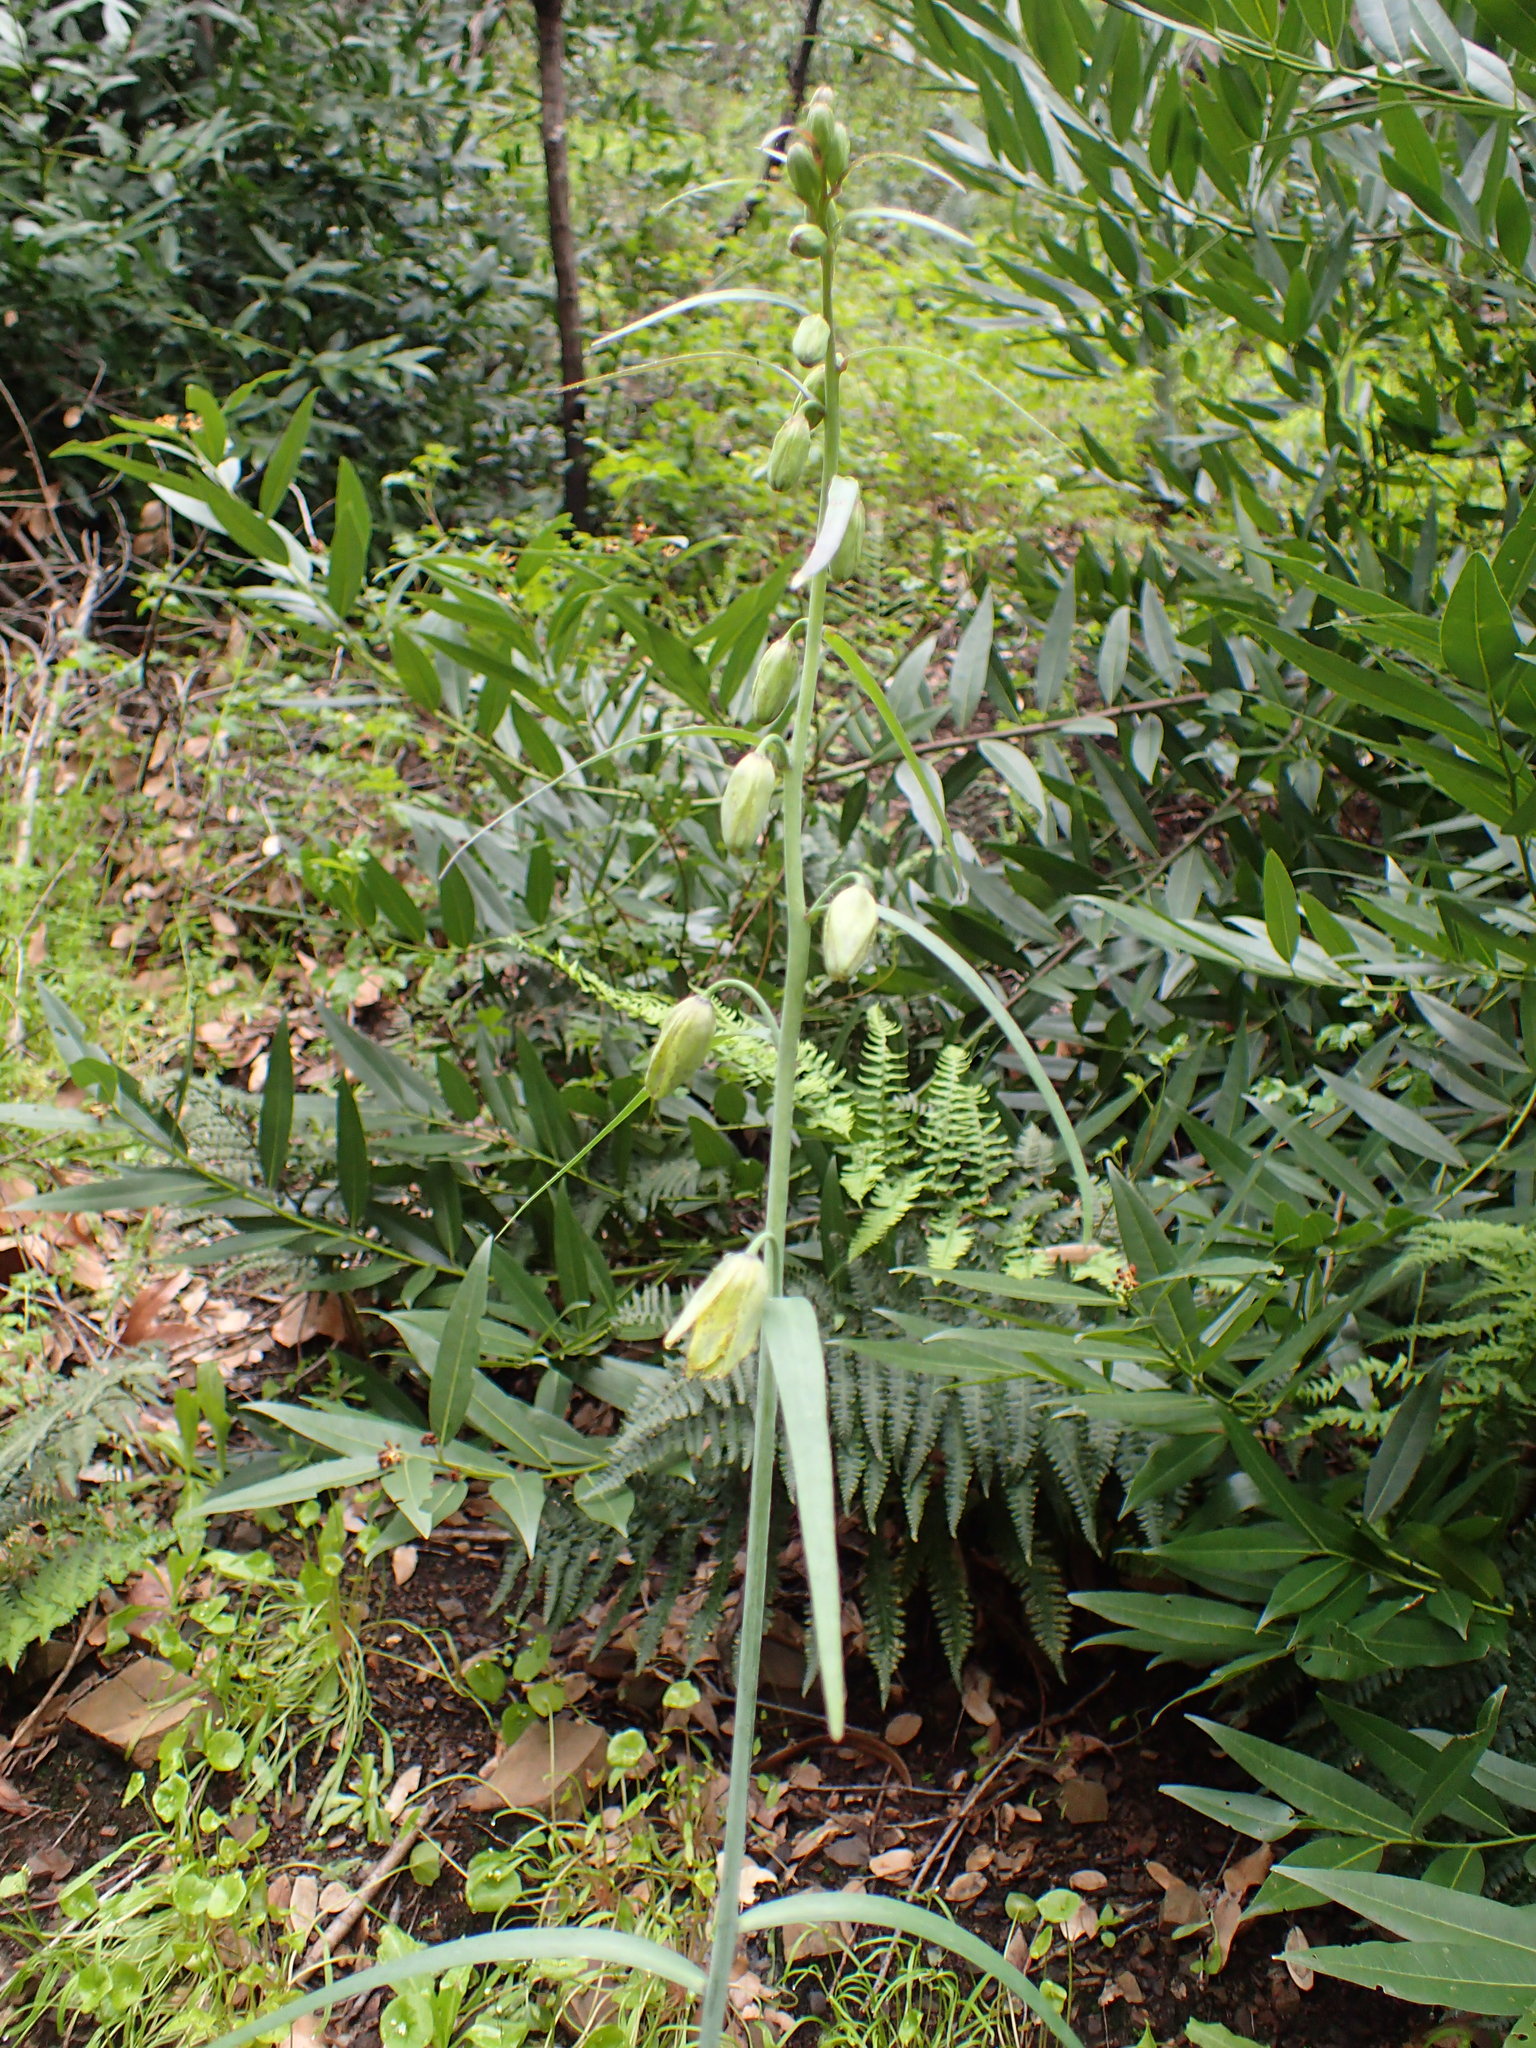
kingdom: Plantae
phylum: Tracheophyta
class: Liliopsida
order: Liliales
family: Liliaceae
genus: Fritillaria
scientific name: Fritillaria ojaiensis
